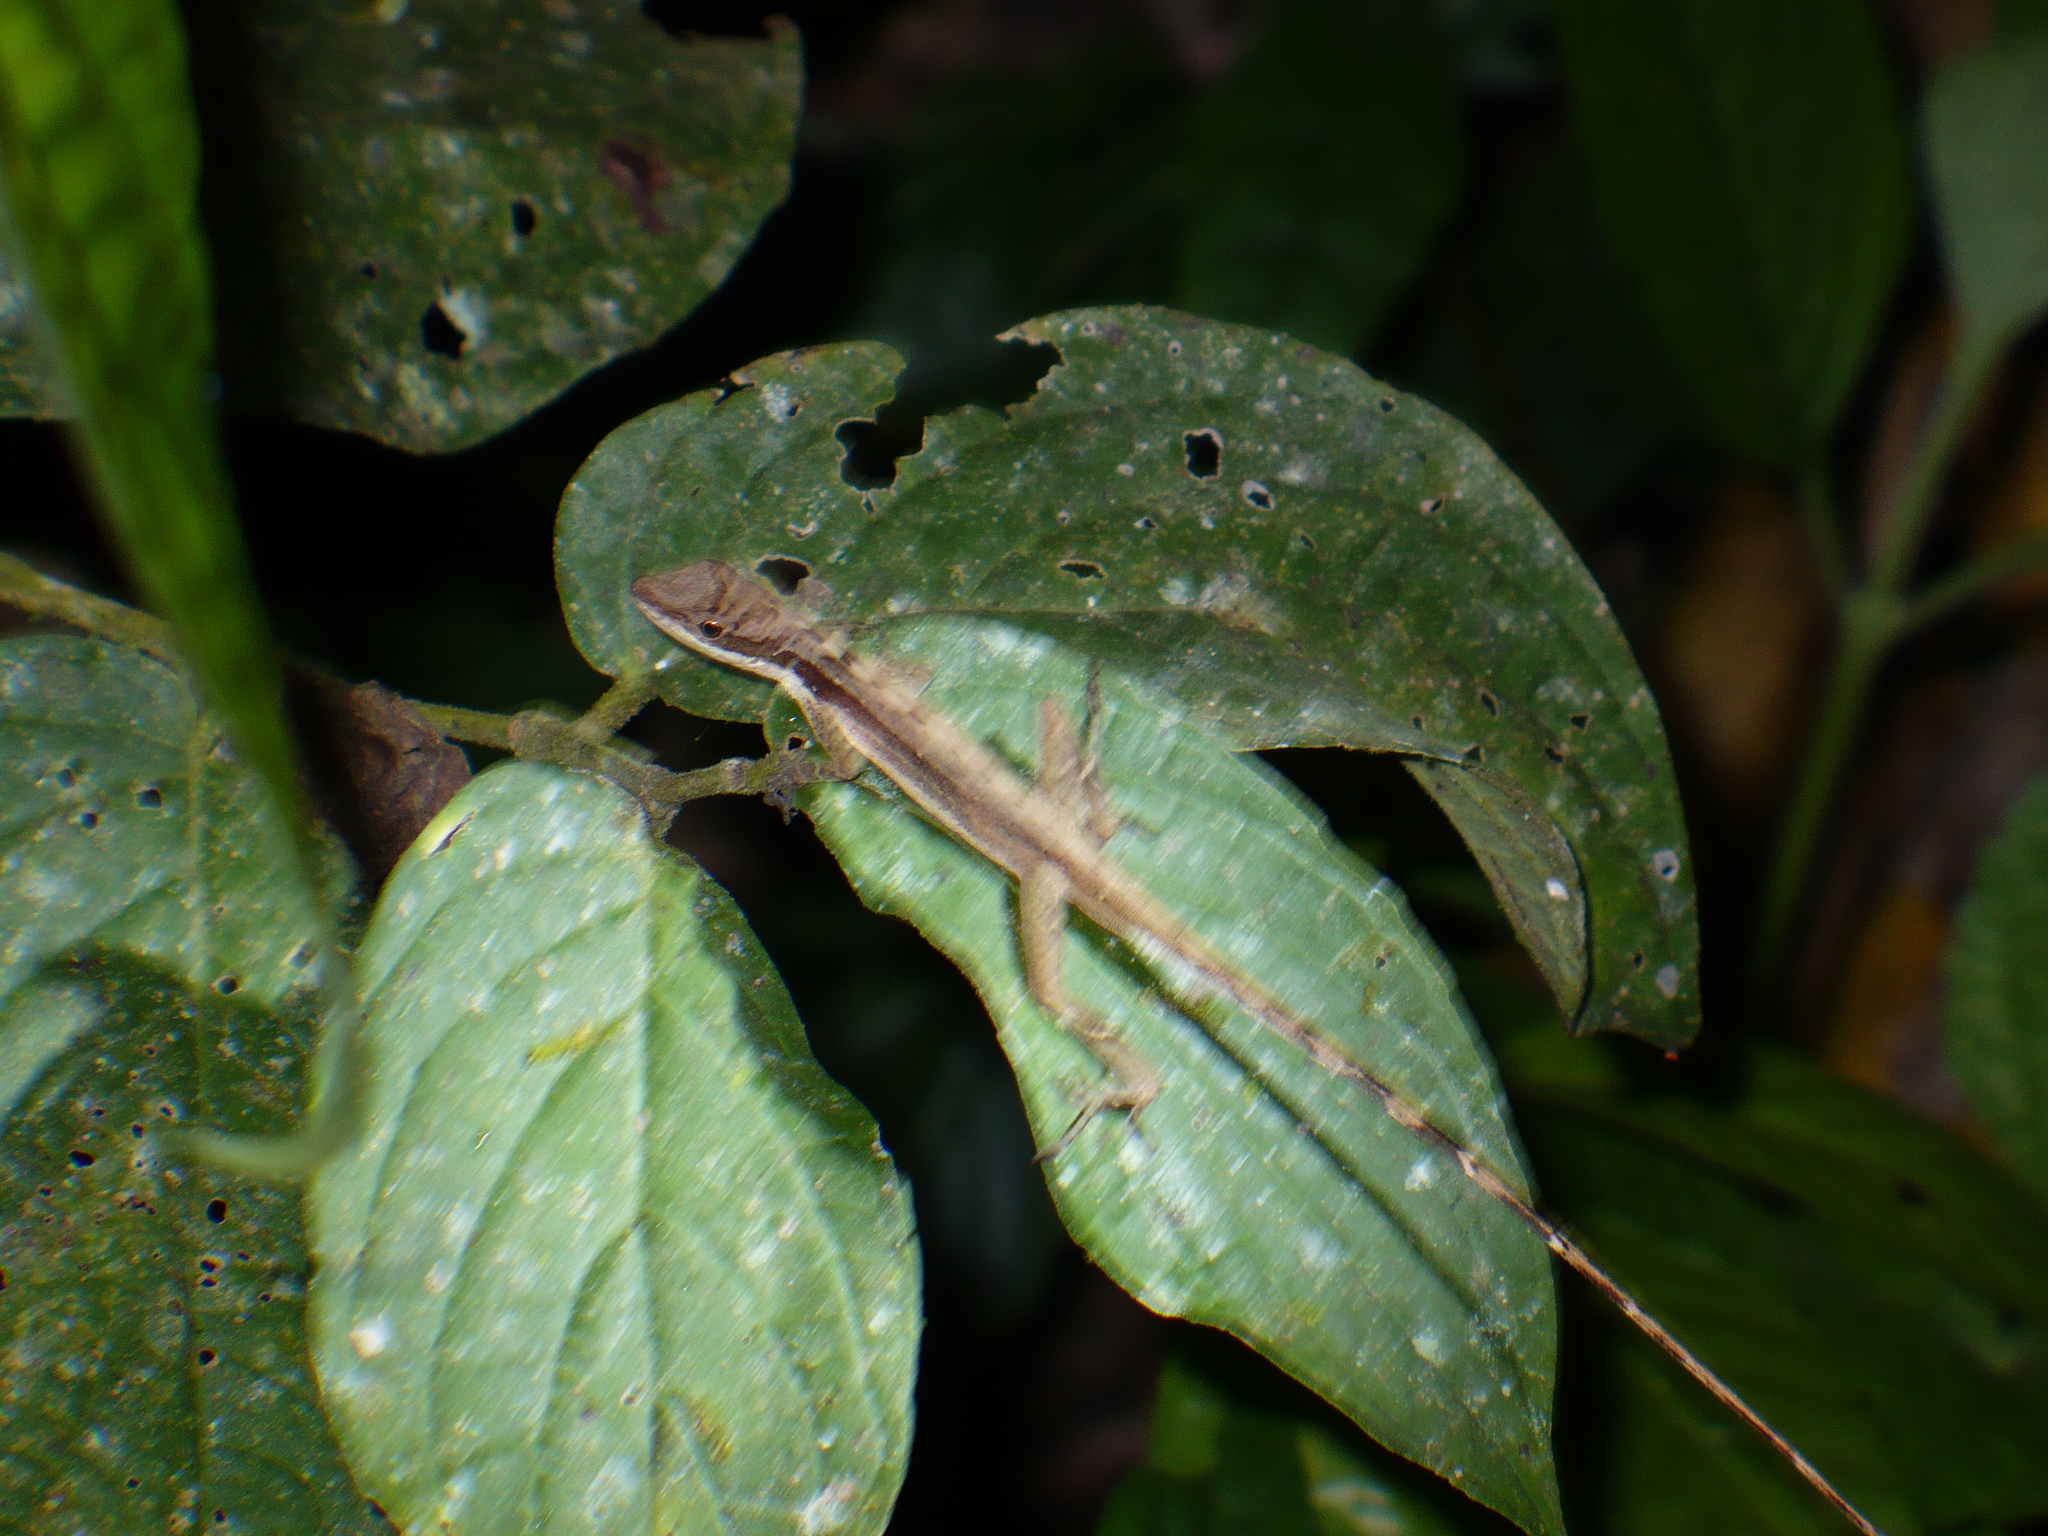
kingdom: Animalia
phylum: Chordata
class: Squamata
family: Dactyloidae
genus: Anolis
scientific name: Anolis limifrons
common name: Border anole
